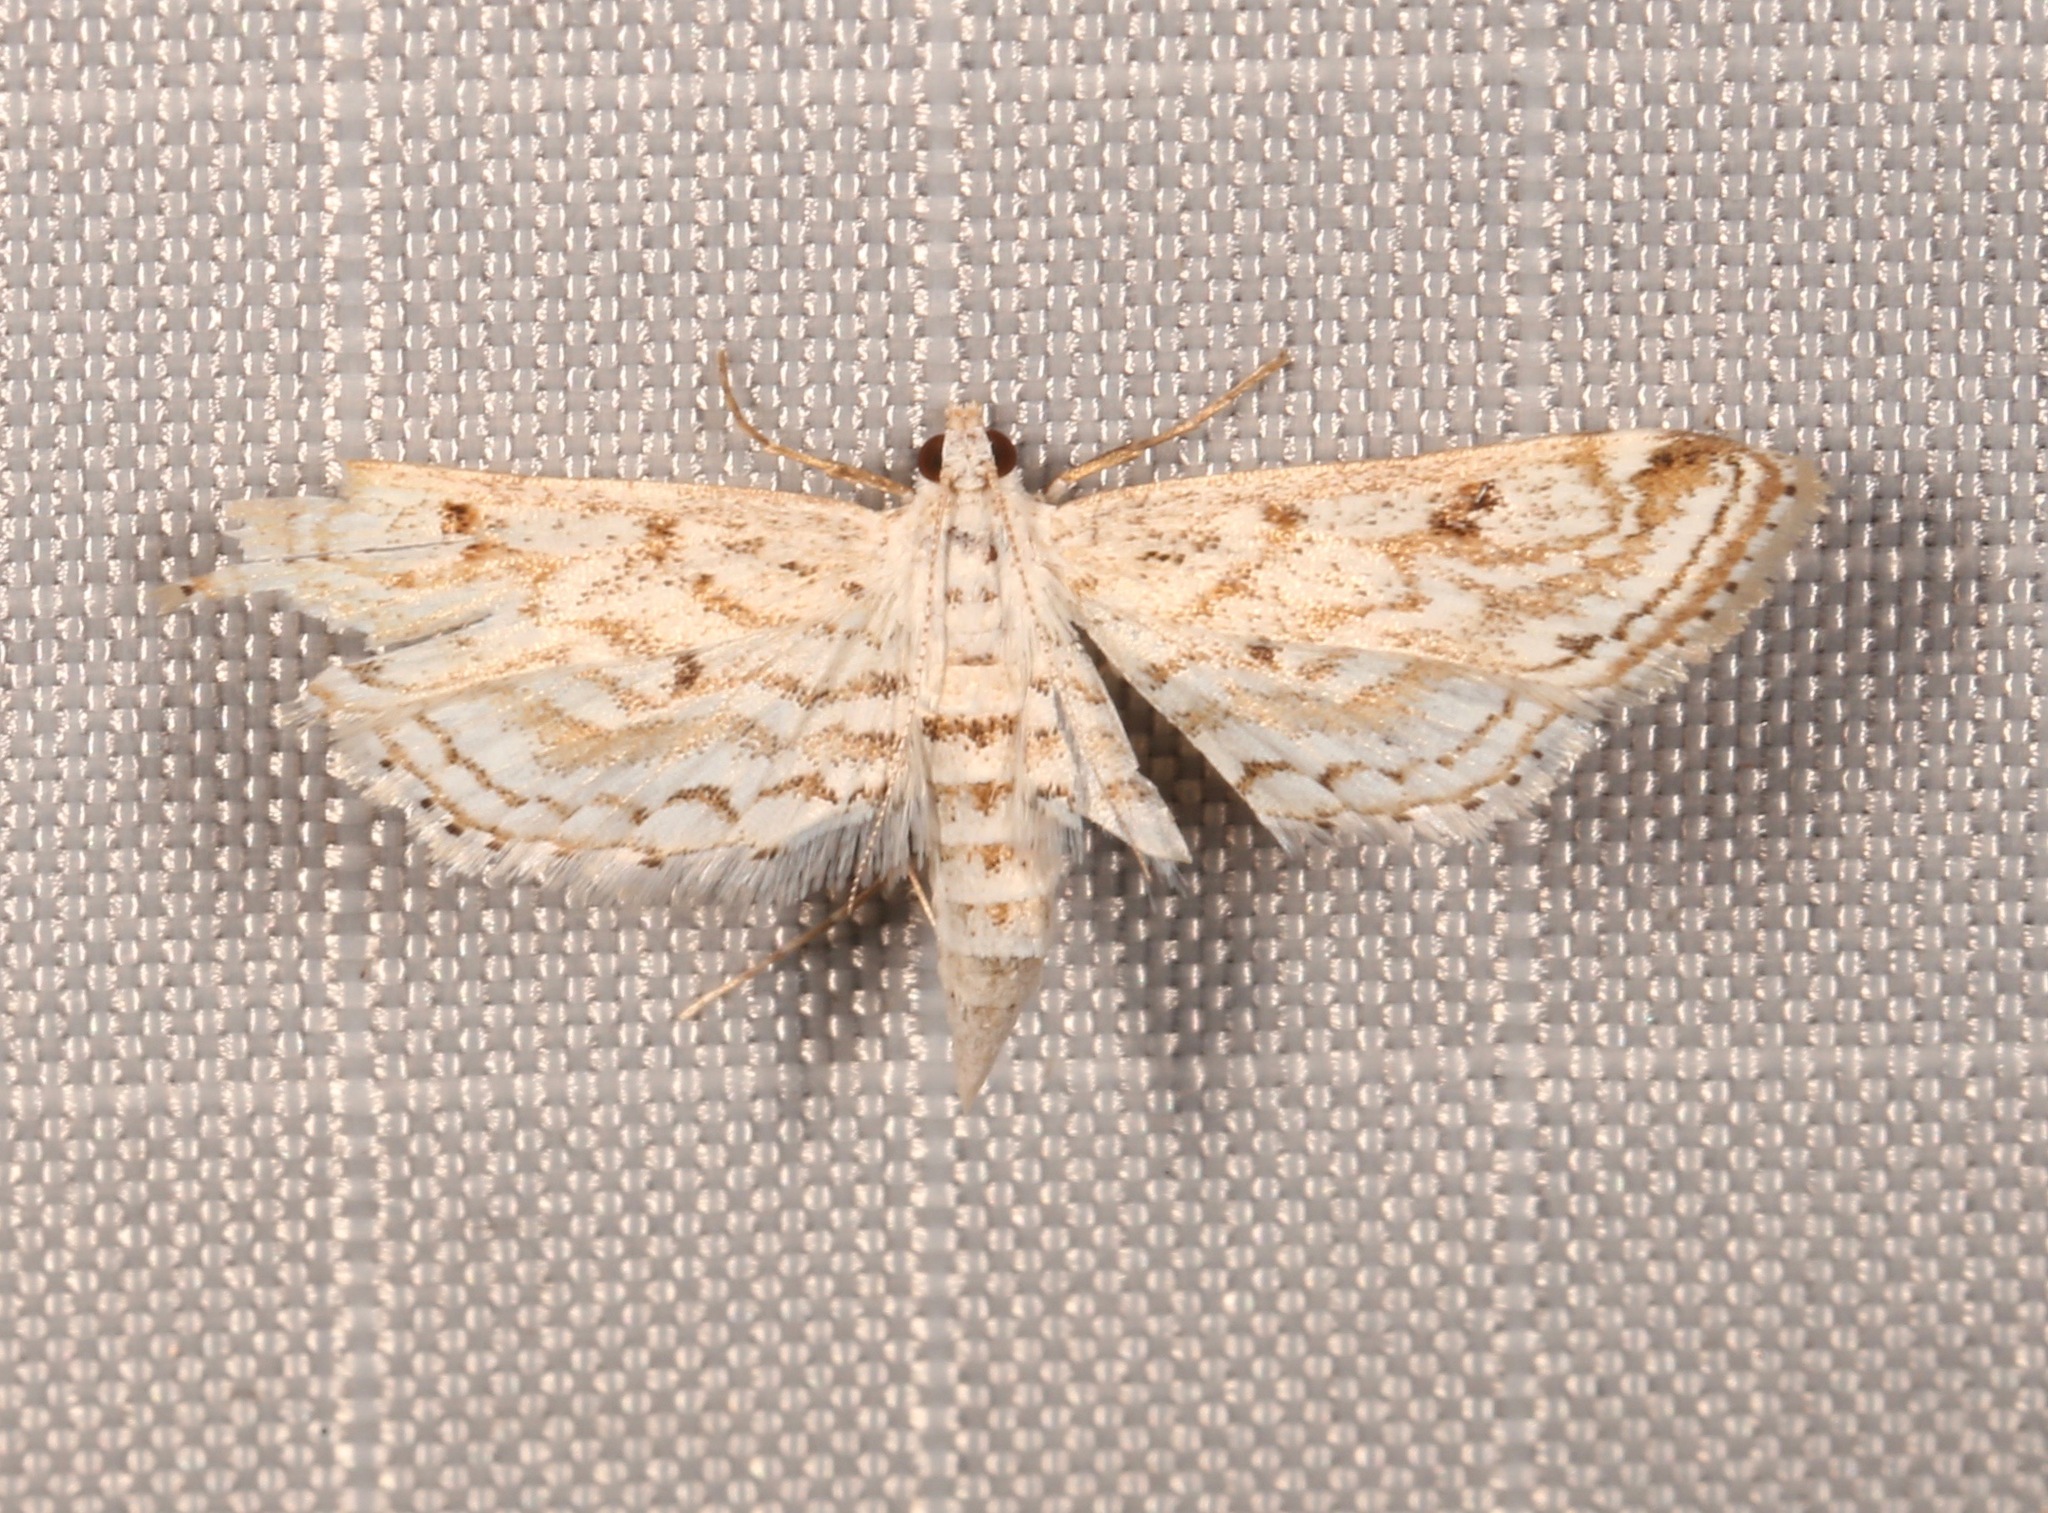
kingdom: Animalia
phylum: Arthropoda
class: Insecta
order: Lepidoptera
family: Crambidae
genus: Parapoynx
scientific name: Parapoynx allionealis
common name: Bladderwort casemaker
